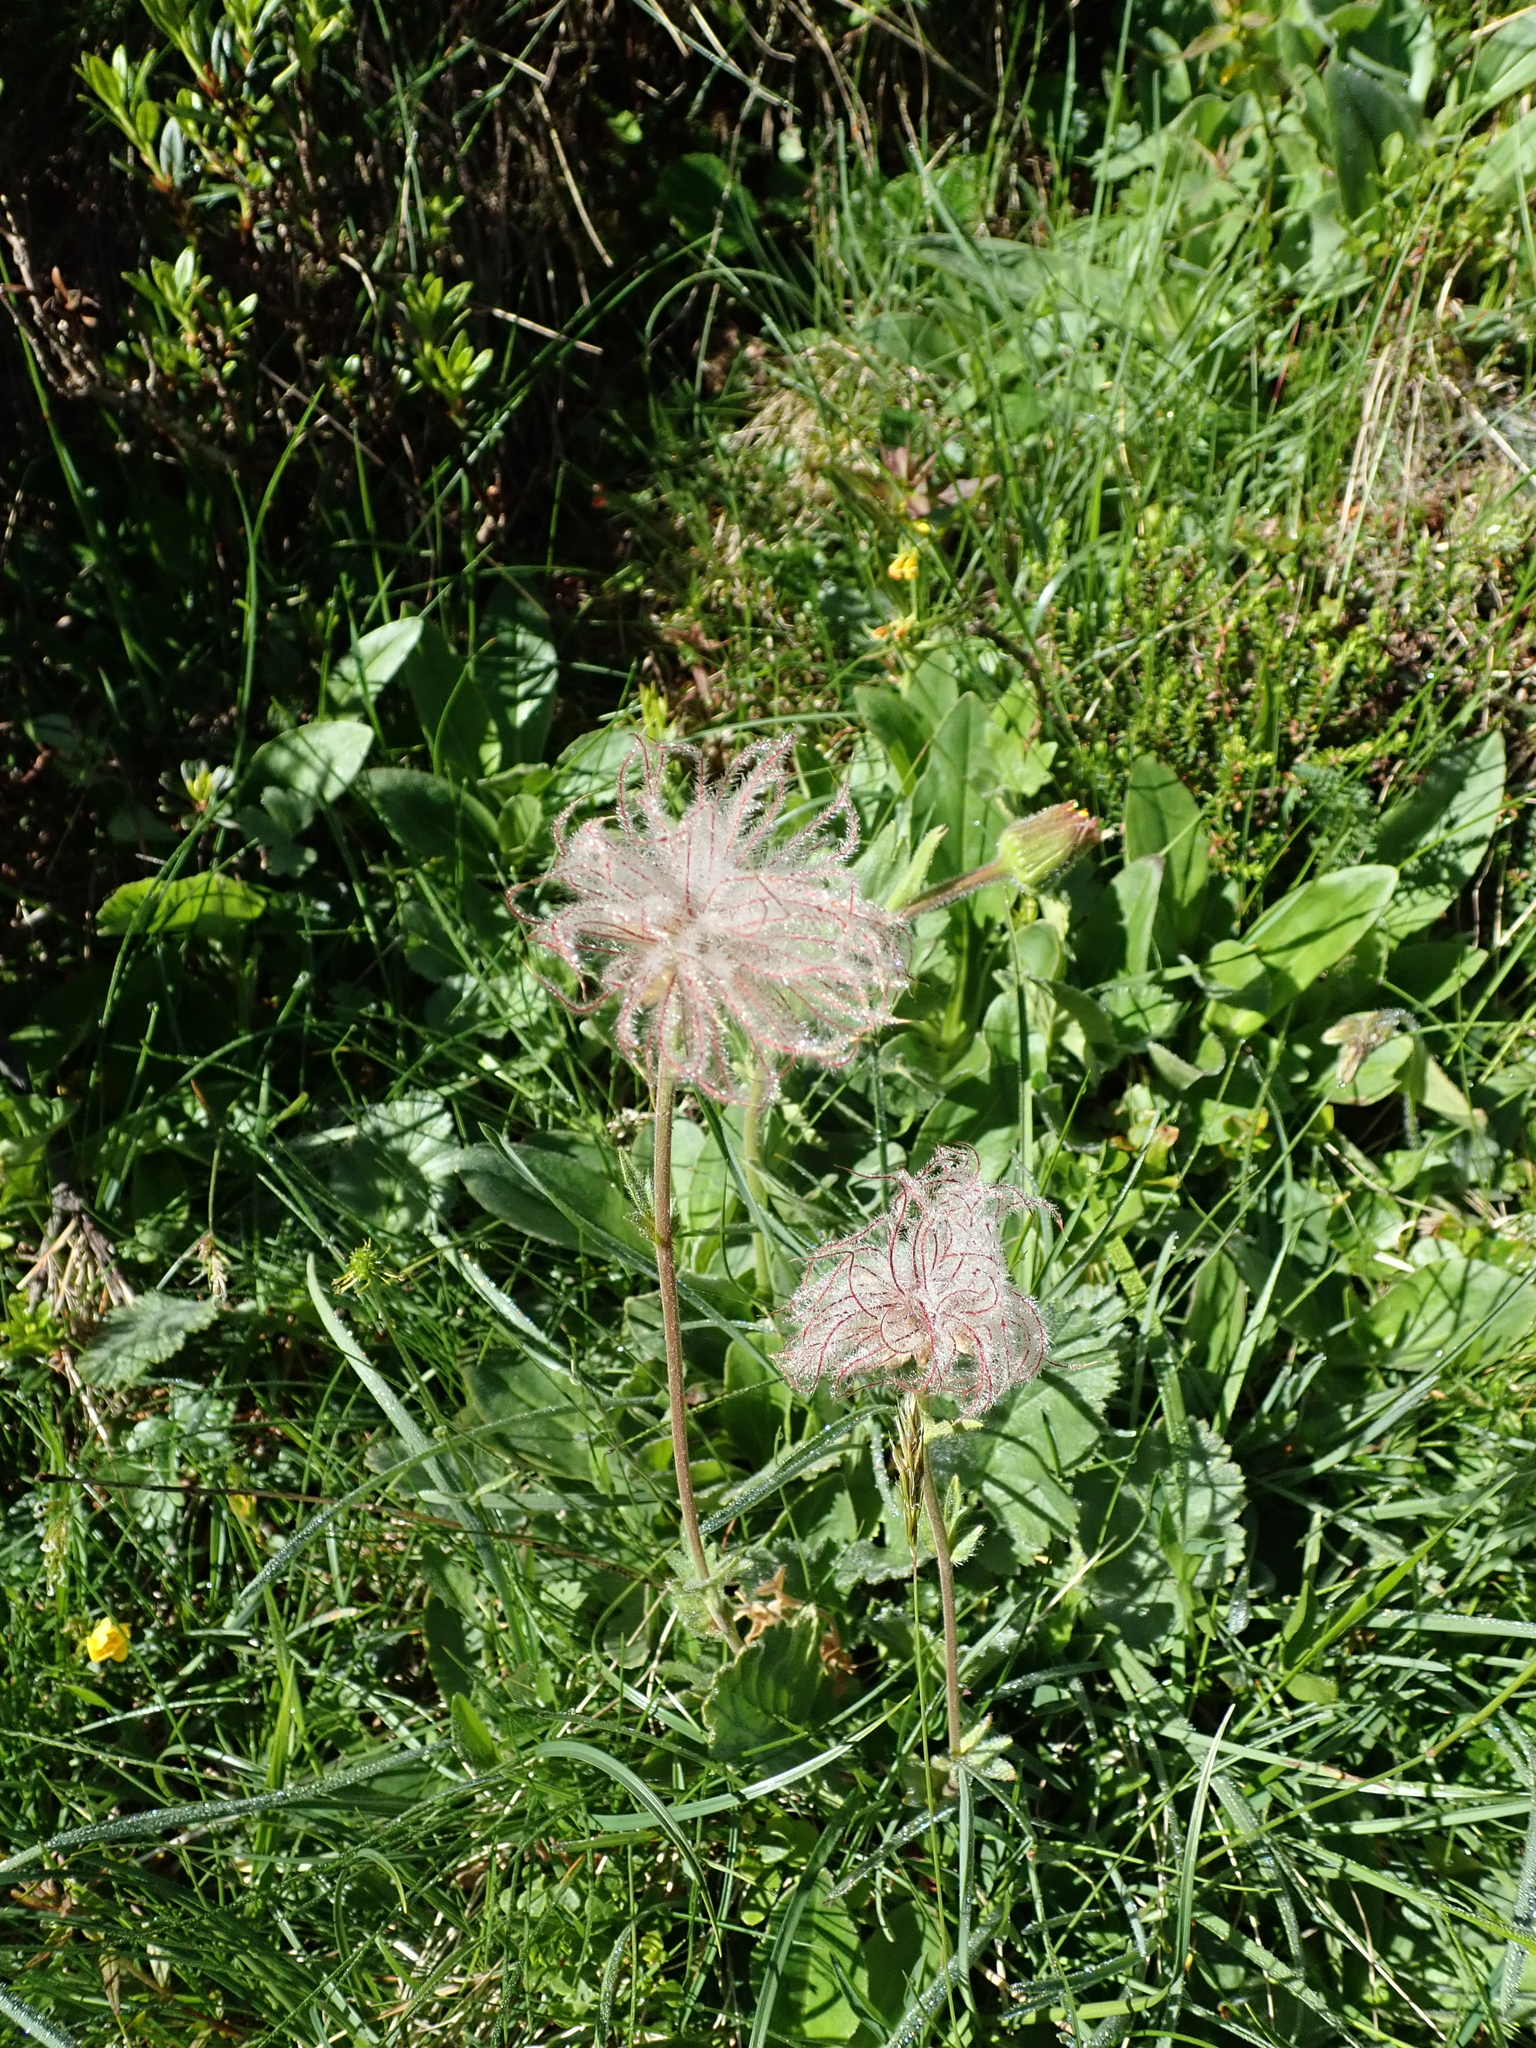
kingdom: Plantae
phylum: Tracheophyta
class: Magnoliopsida
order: Rosales
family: Rosaceae
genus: Geum
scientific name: Geum montanum
